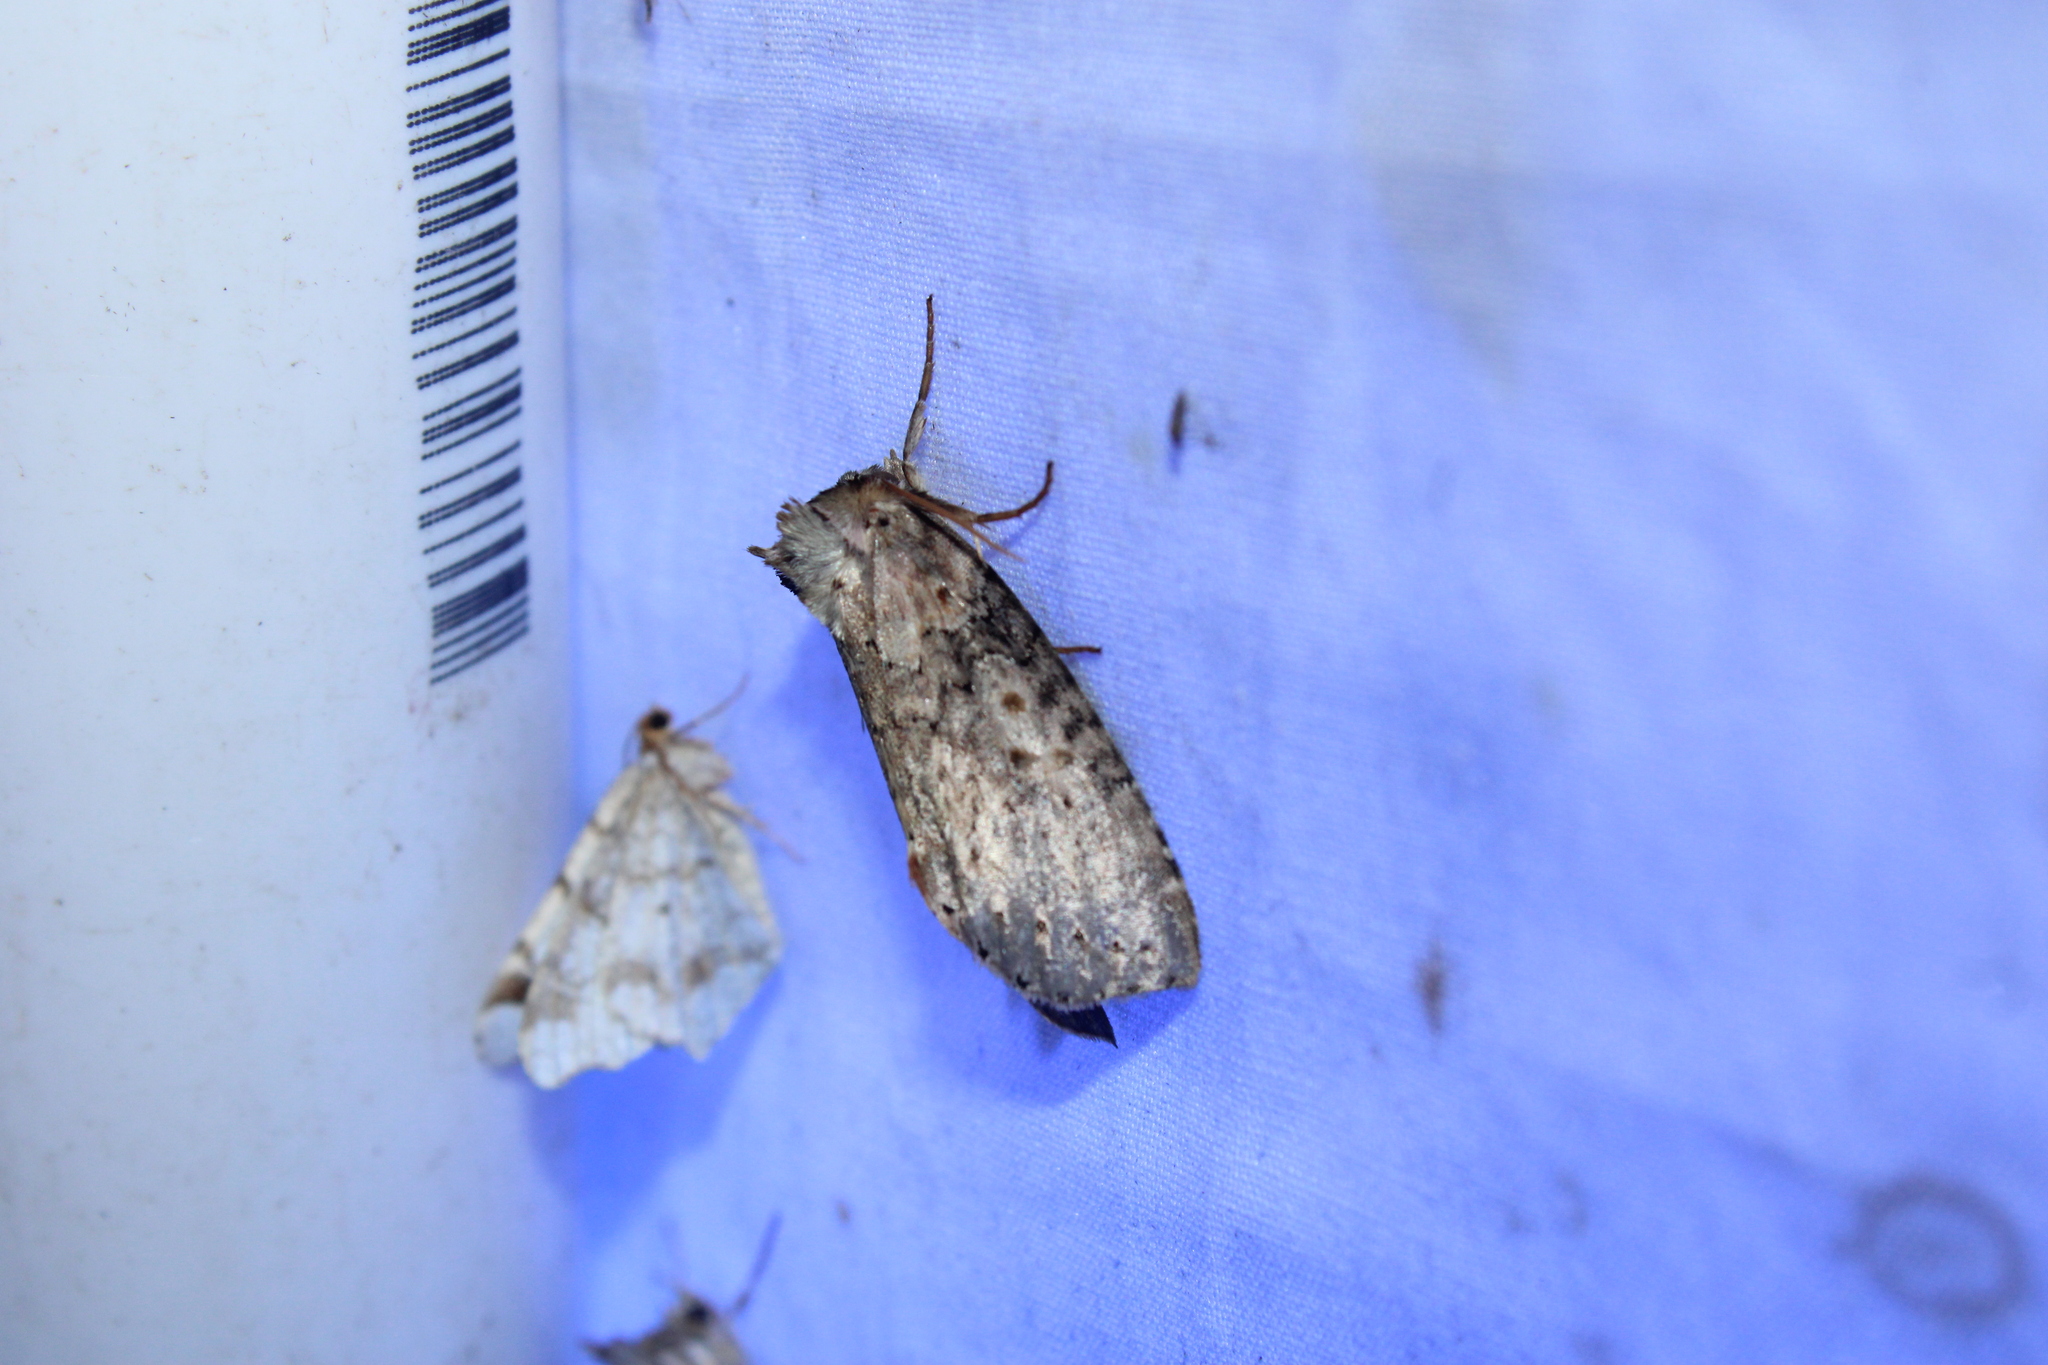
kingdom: Animalia
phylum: Arthropoda
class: Insecta
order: Lepidoptera
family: Drepanidae
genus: Pseudothyatira
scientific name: Pseudothyatira cymatophoroides
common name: Tufted thyatirid moth
